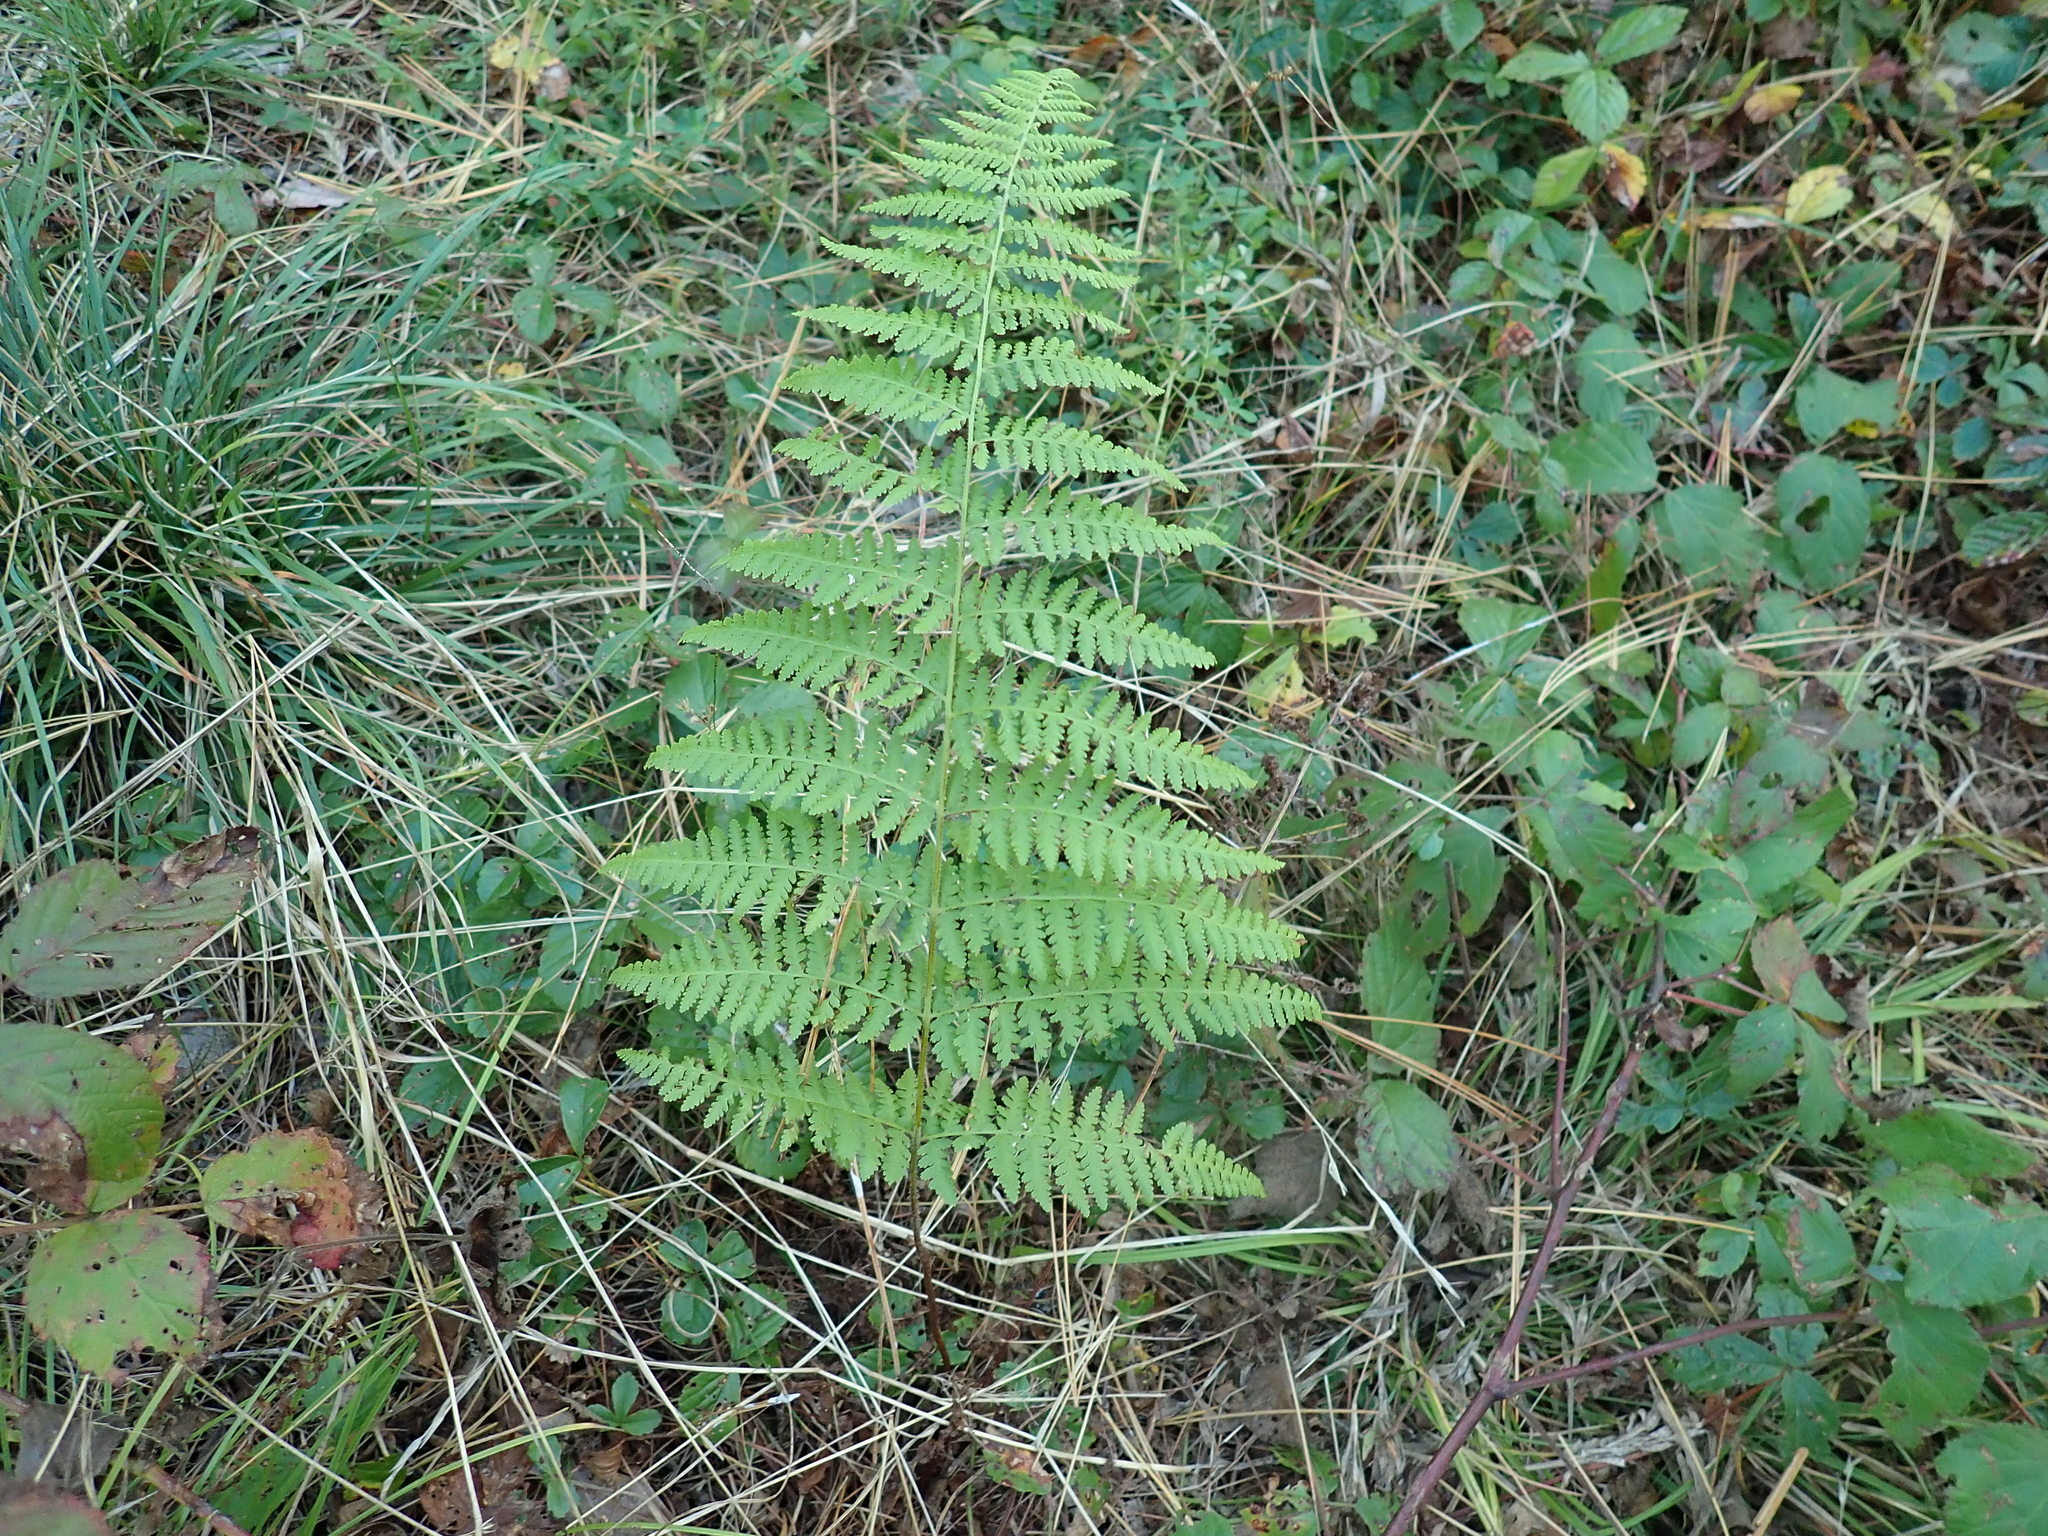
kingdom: Plantae
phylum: Tracheophyta
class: Polypodiopsida
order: Polypodiales
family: Dennstaedtiaceae
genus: Sitobolium
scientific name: Sitobolium punctilobum
